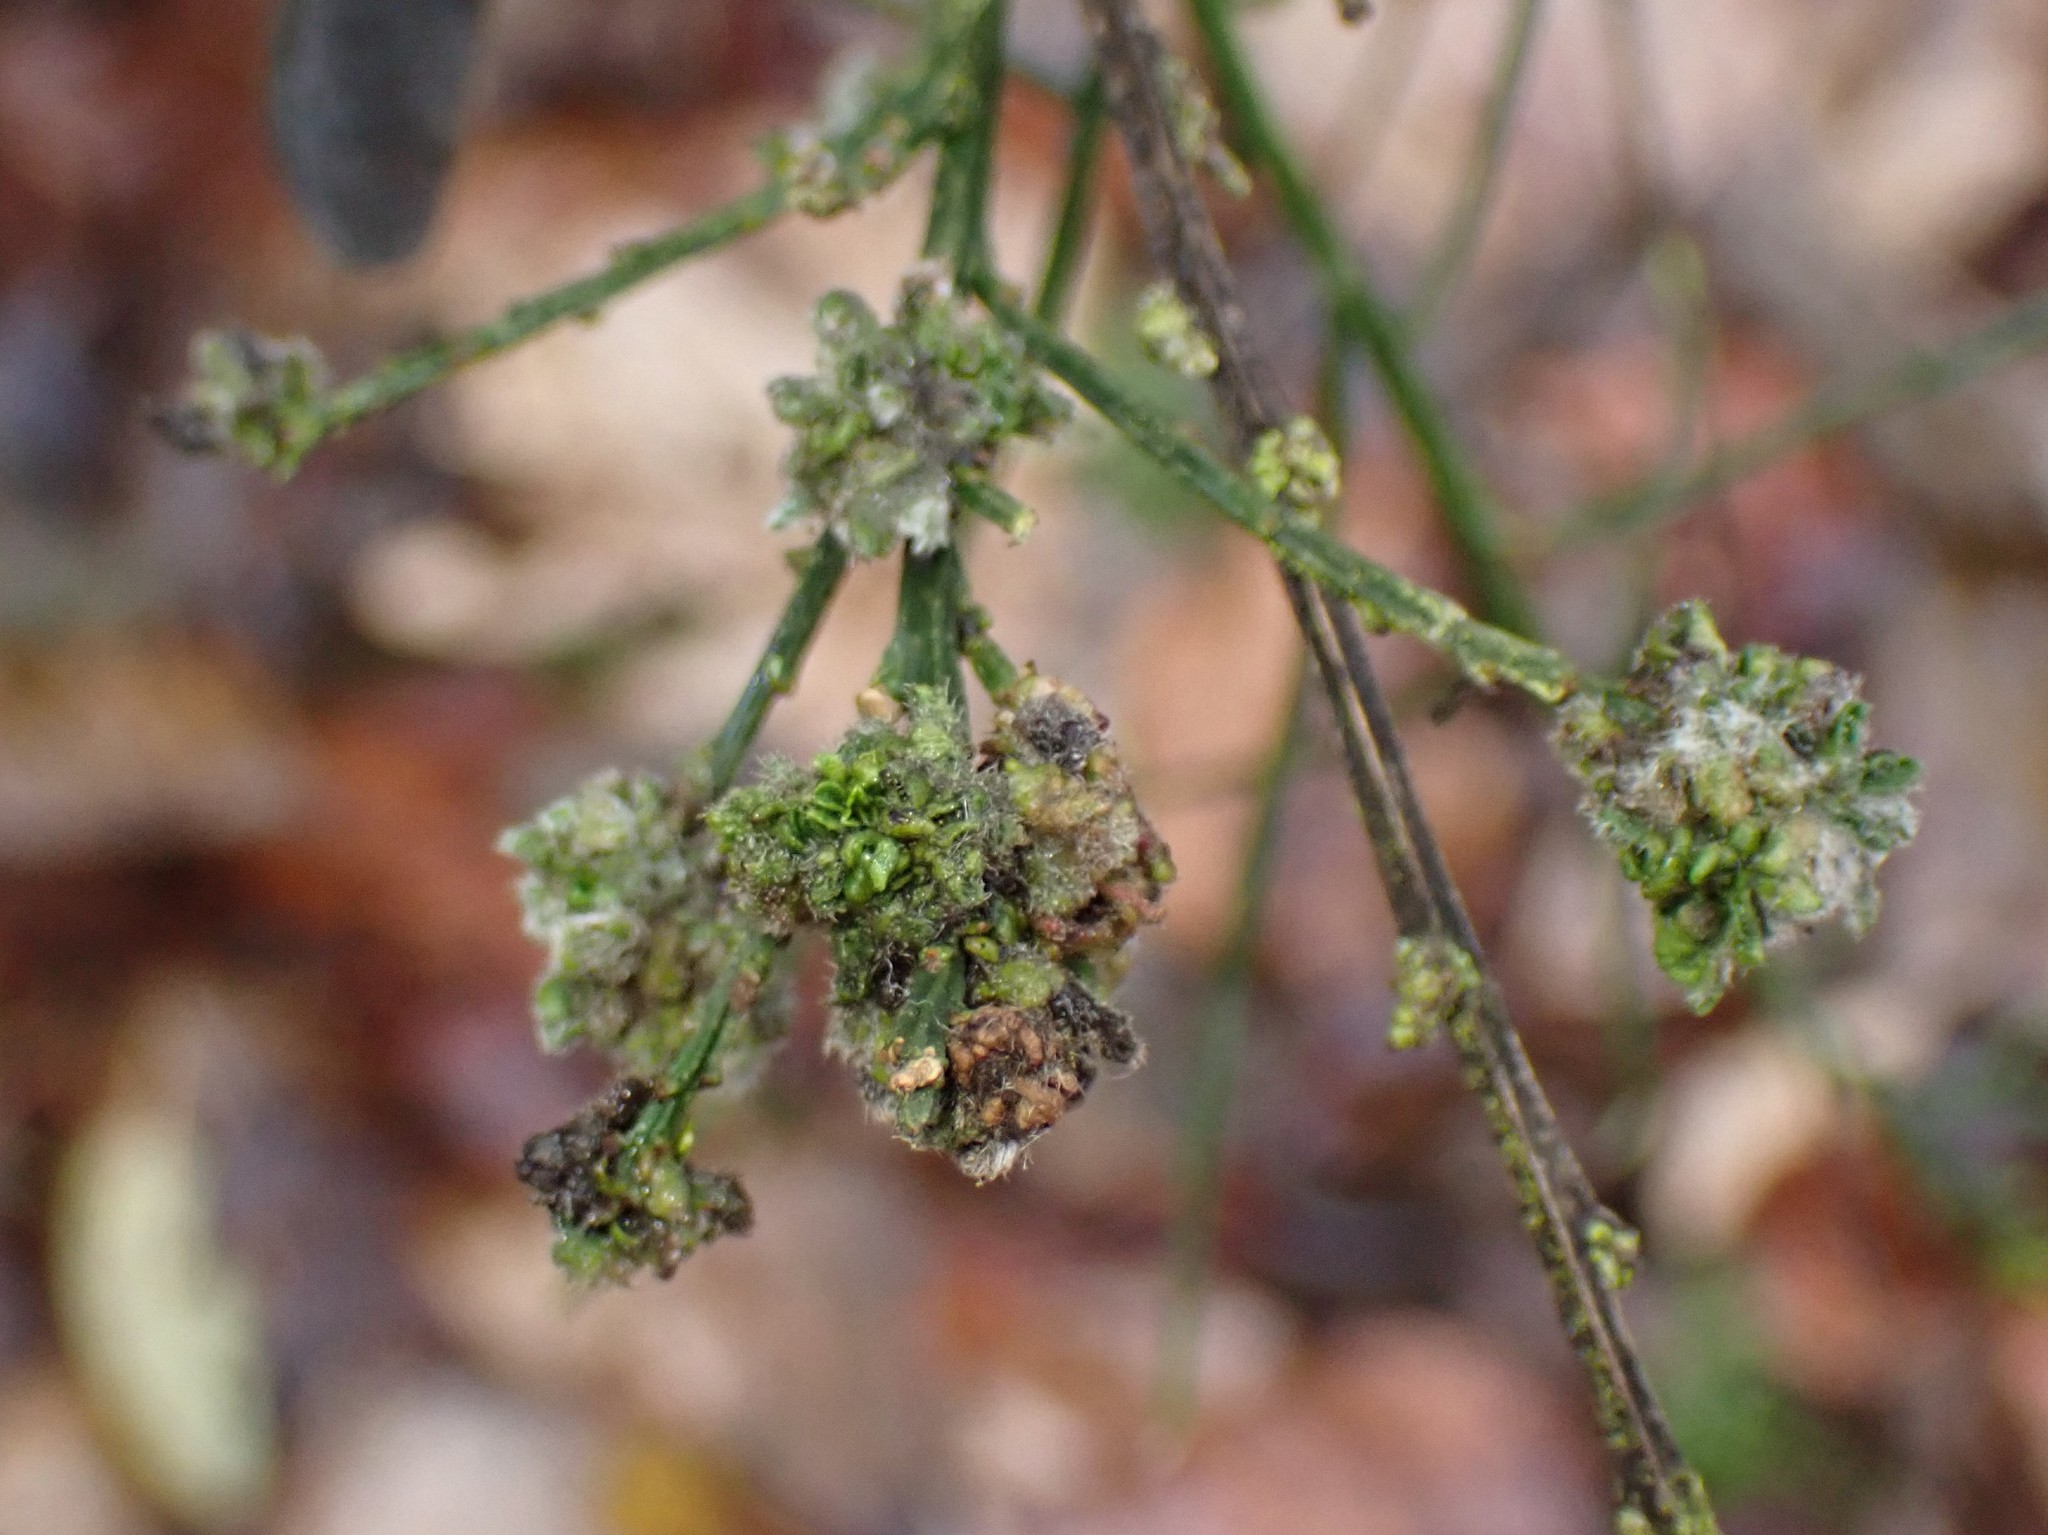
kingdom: Animalia
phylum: Arthropoda
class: Arachnida
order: Trombidiformes
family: Eriophyidae
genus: Aceria
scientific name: Aceria genistae
